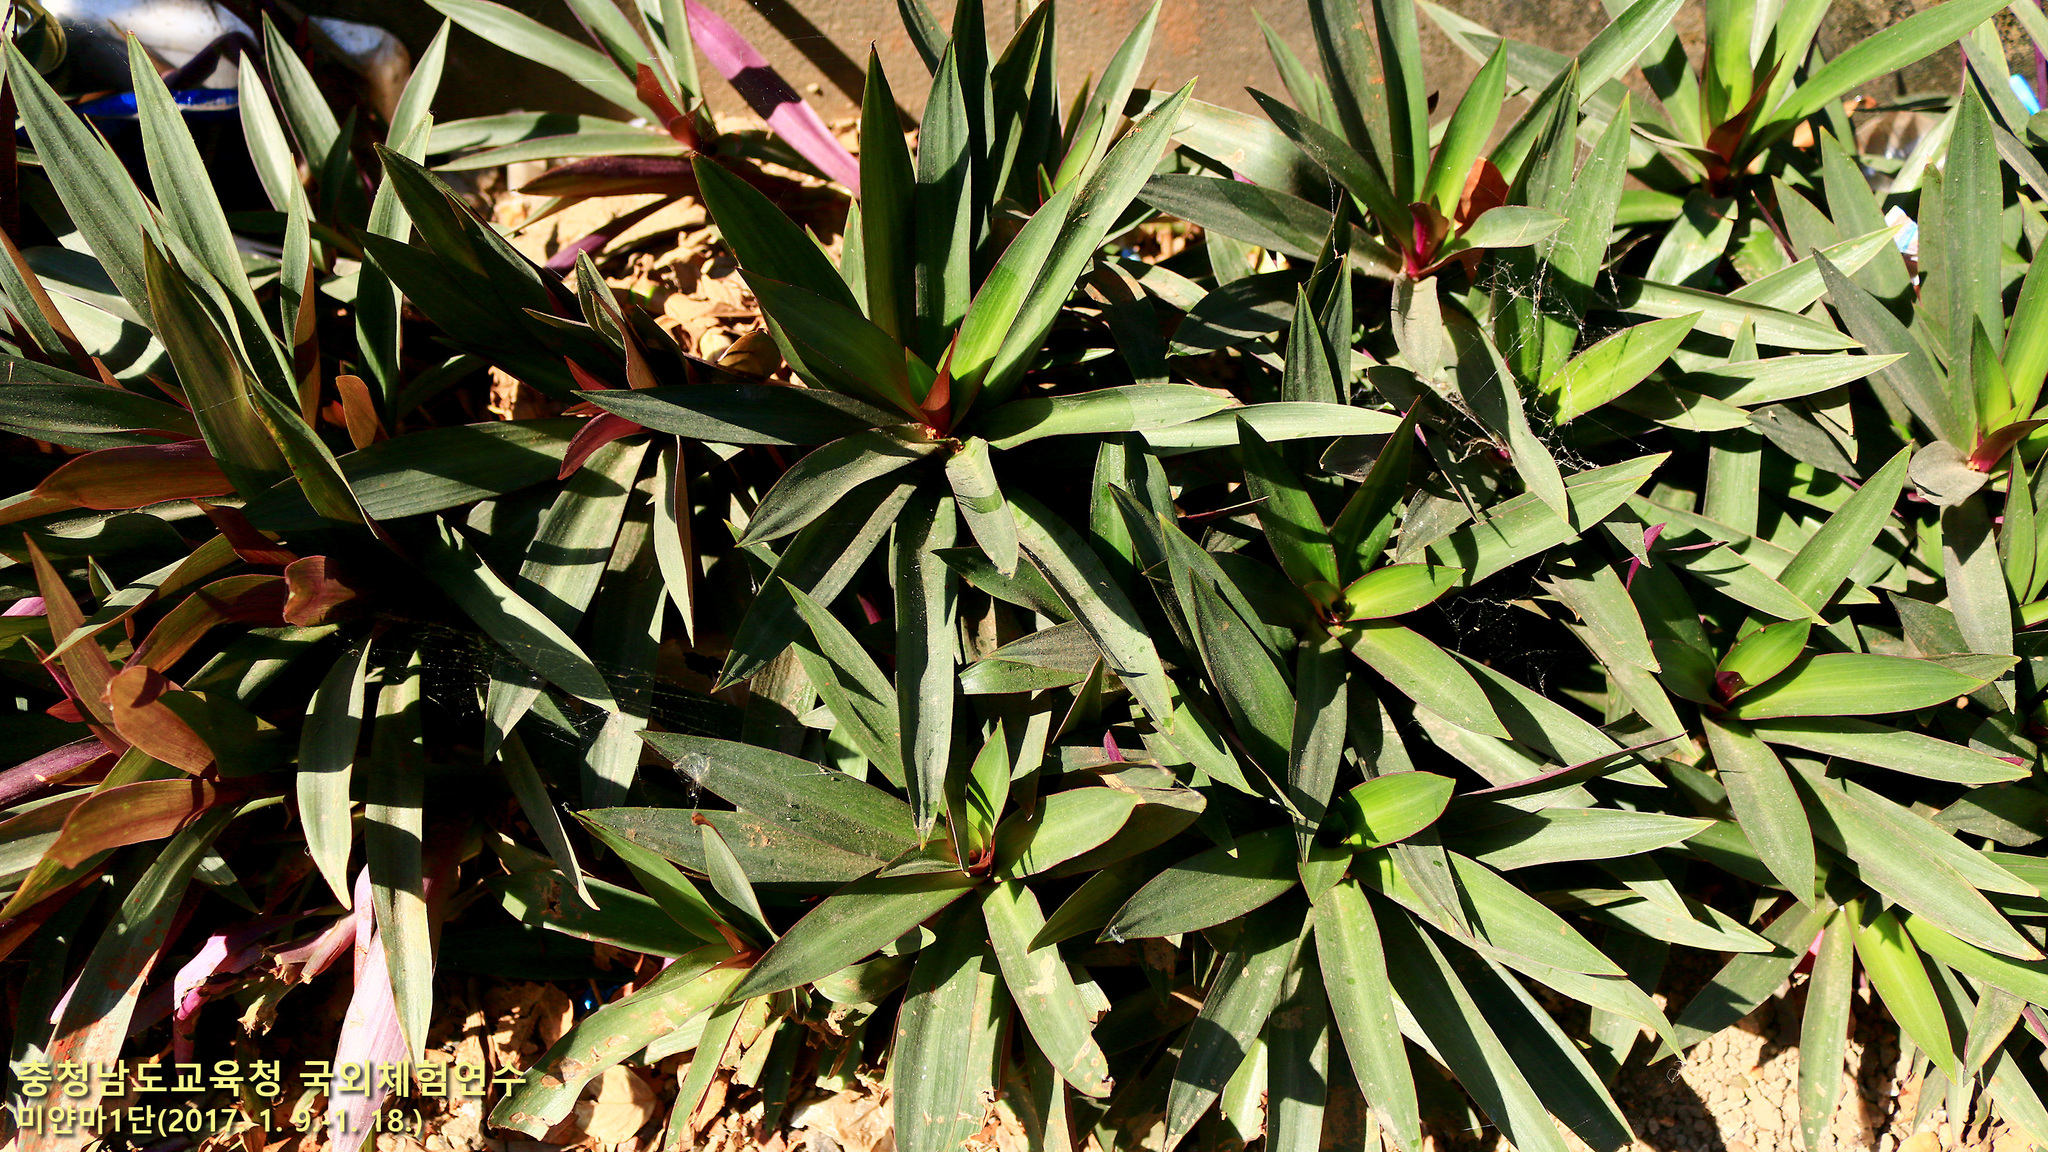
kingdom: Plantae
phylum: Tracheophyta
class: Liliopsida
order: Commelinales
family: Commelinaceae
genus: Tradescantia
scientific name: Tradescantia spathacea
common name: Boatlily
